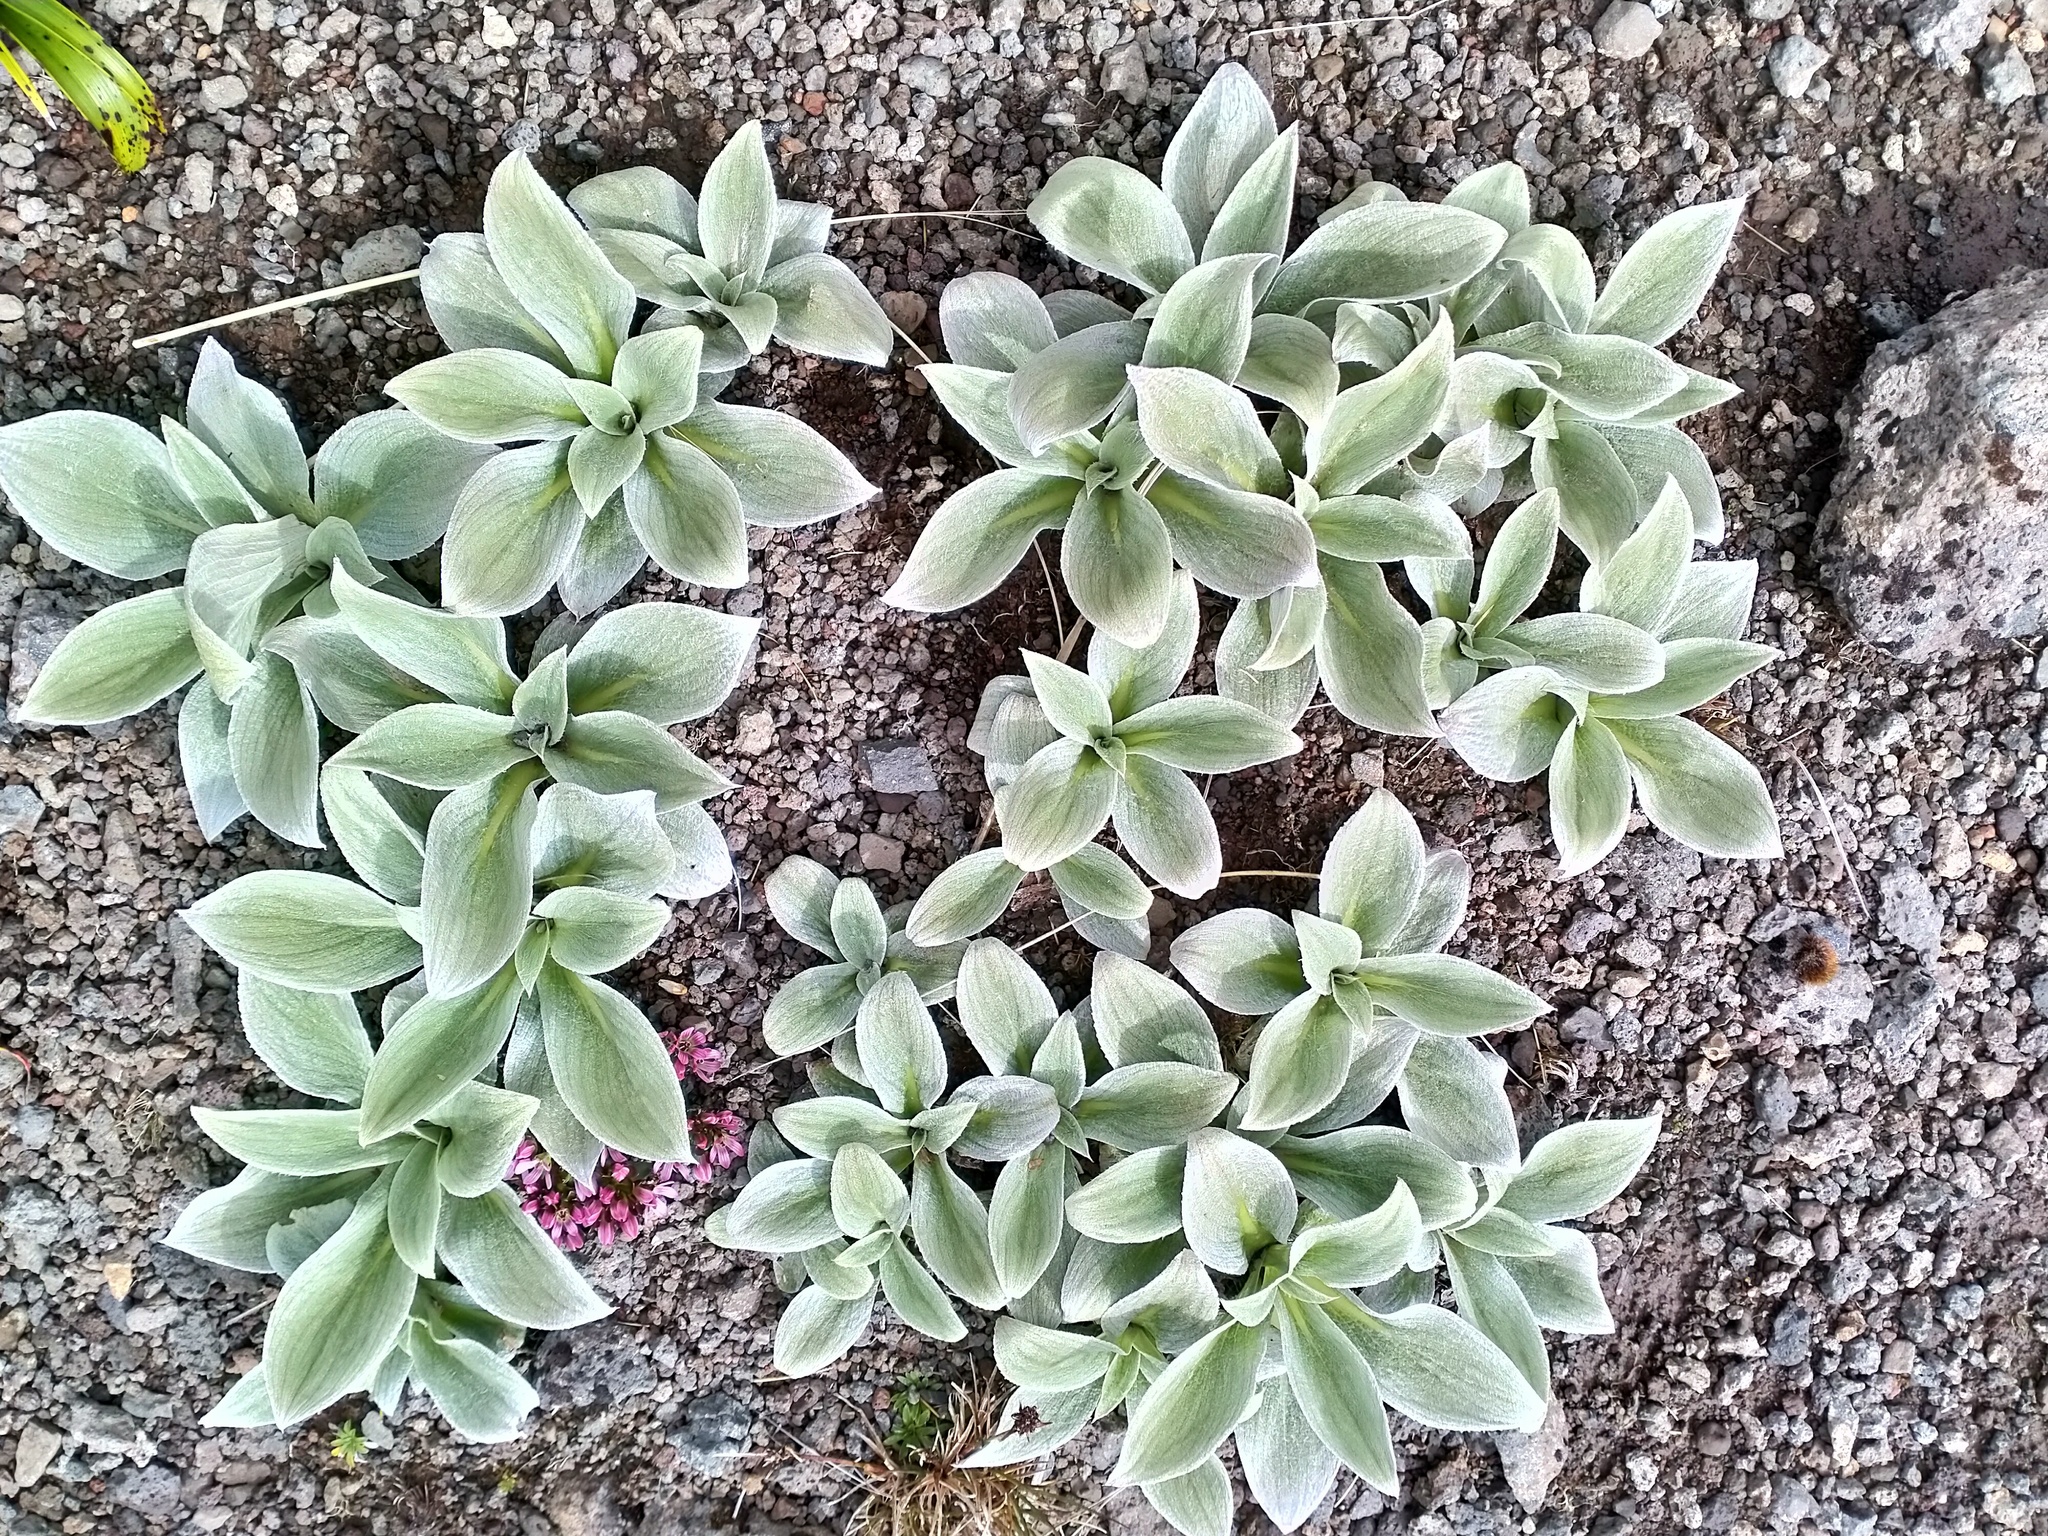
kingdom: Plantae
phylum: Tracheophyta
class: Magnoliopsida
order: Asterales
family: Asteraceae
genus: Pleurophyllum
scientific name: Pleurophyllum hookeri
